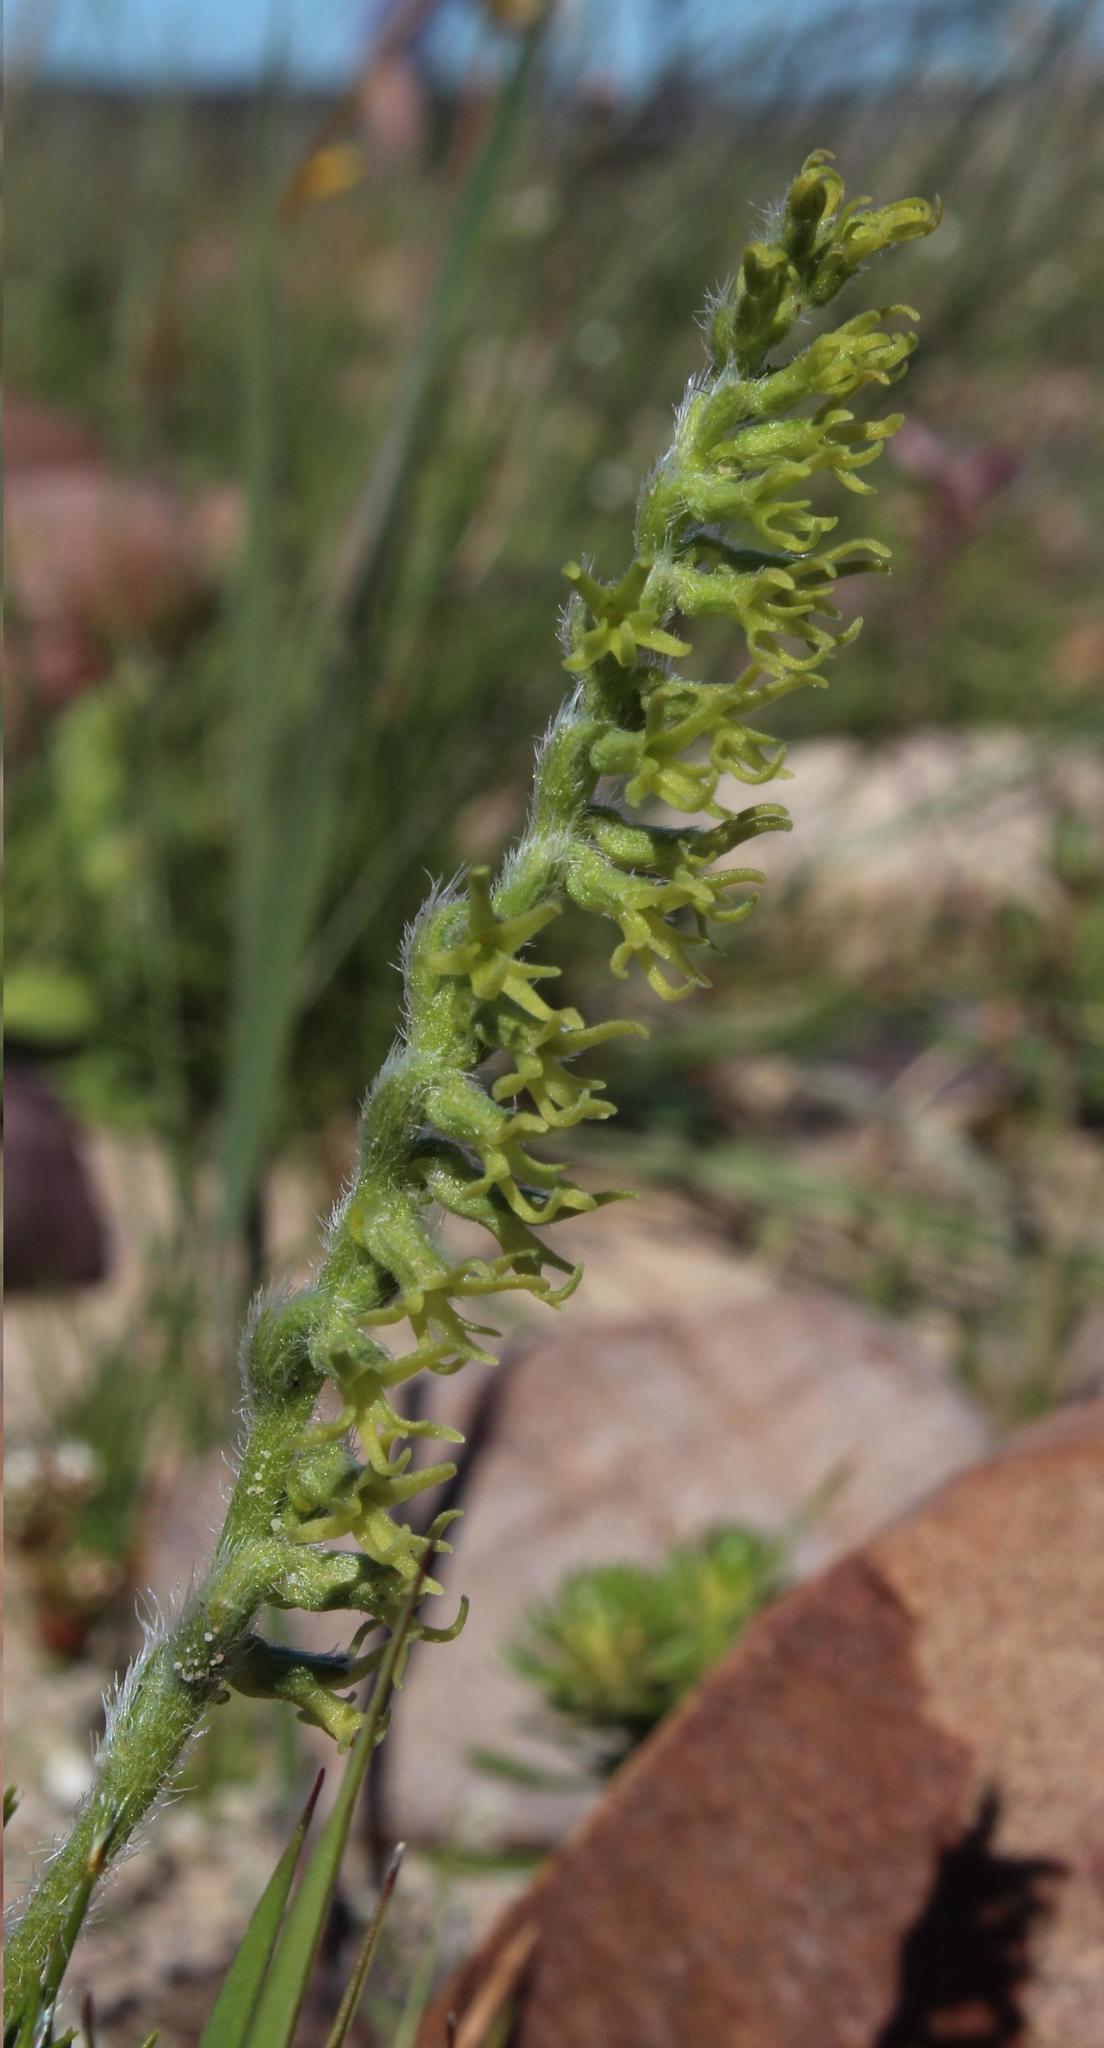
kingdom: Plantae
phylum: Tracheophyta
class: Liliopsida
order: Asparagales
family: Orchidaceae
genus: Holothrix
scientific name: Holothrix villosa
